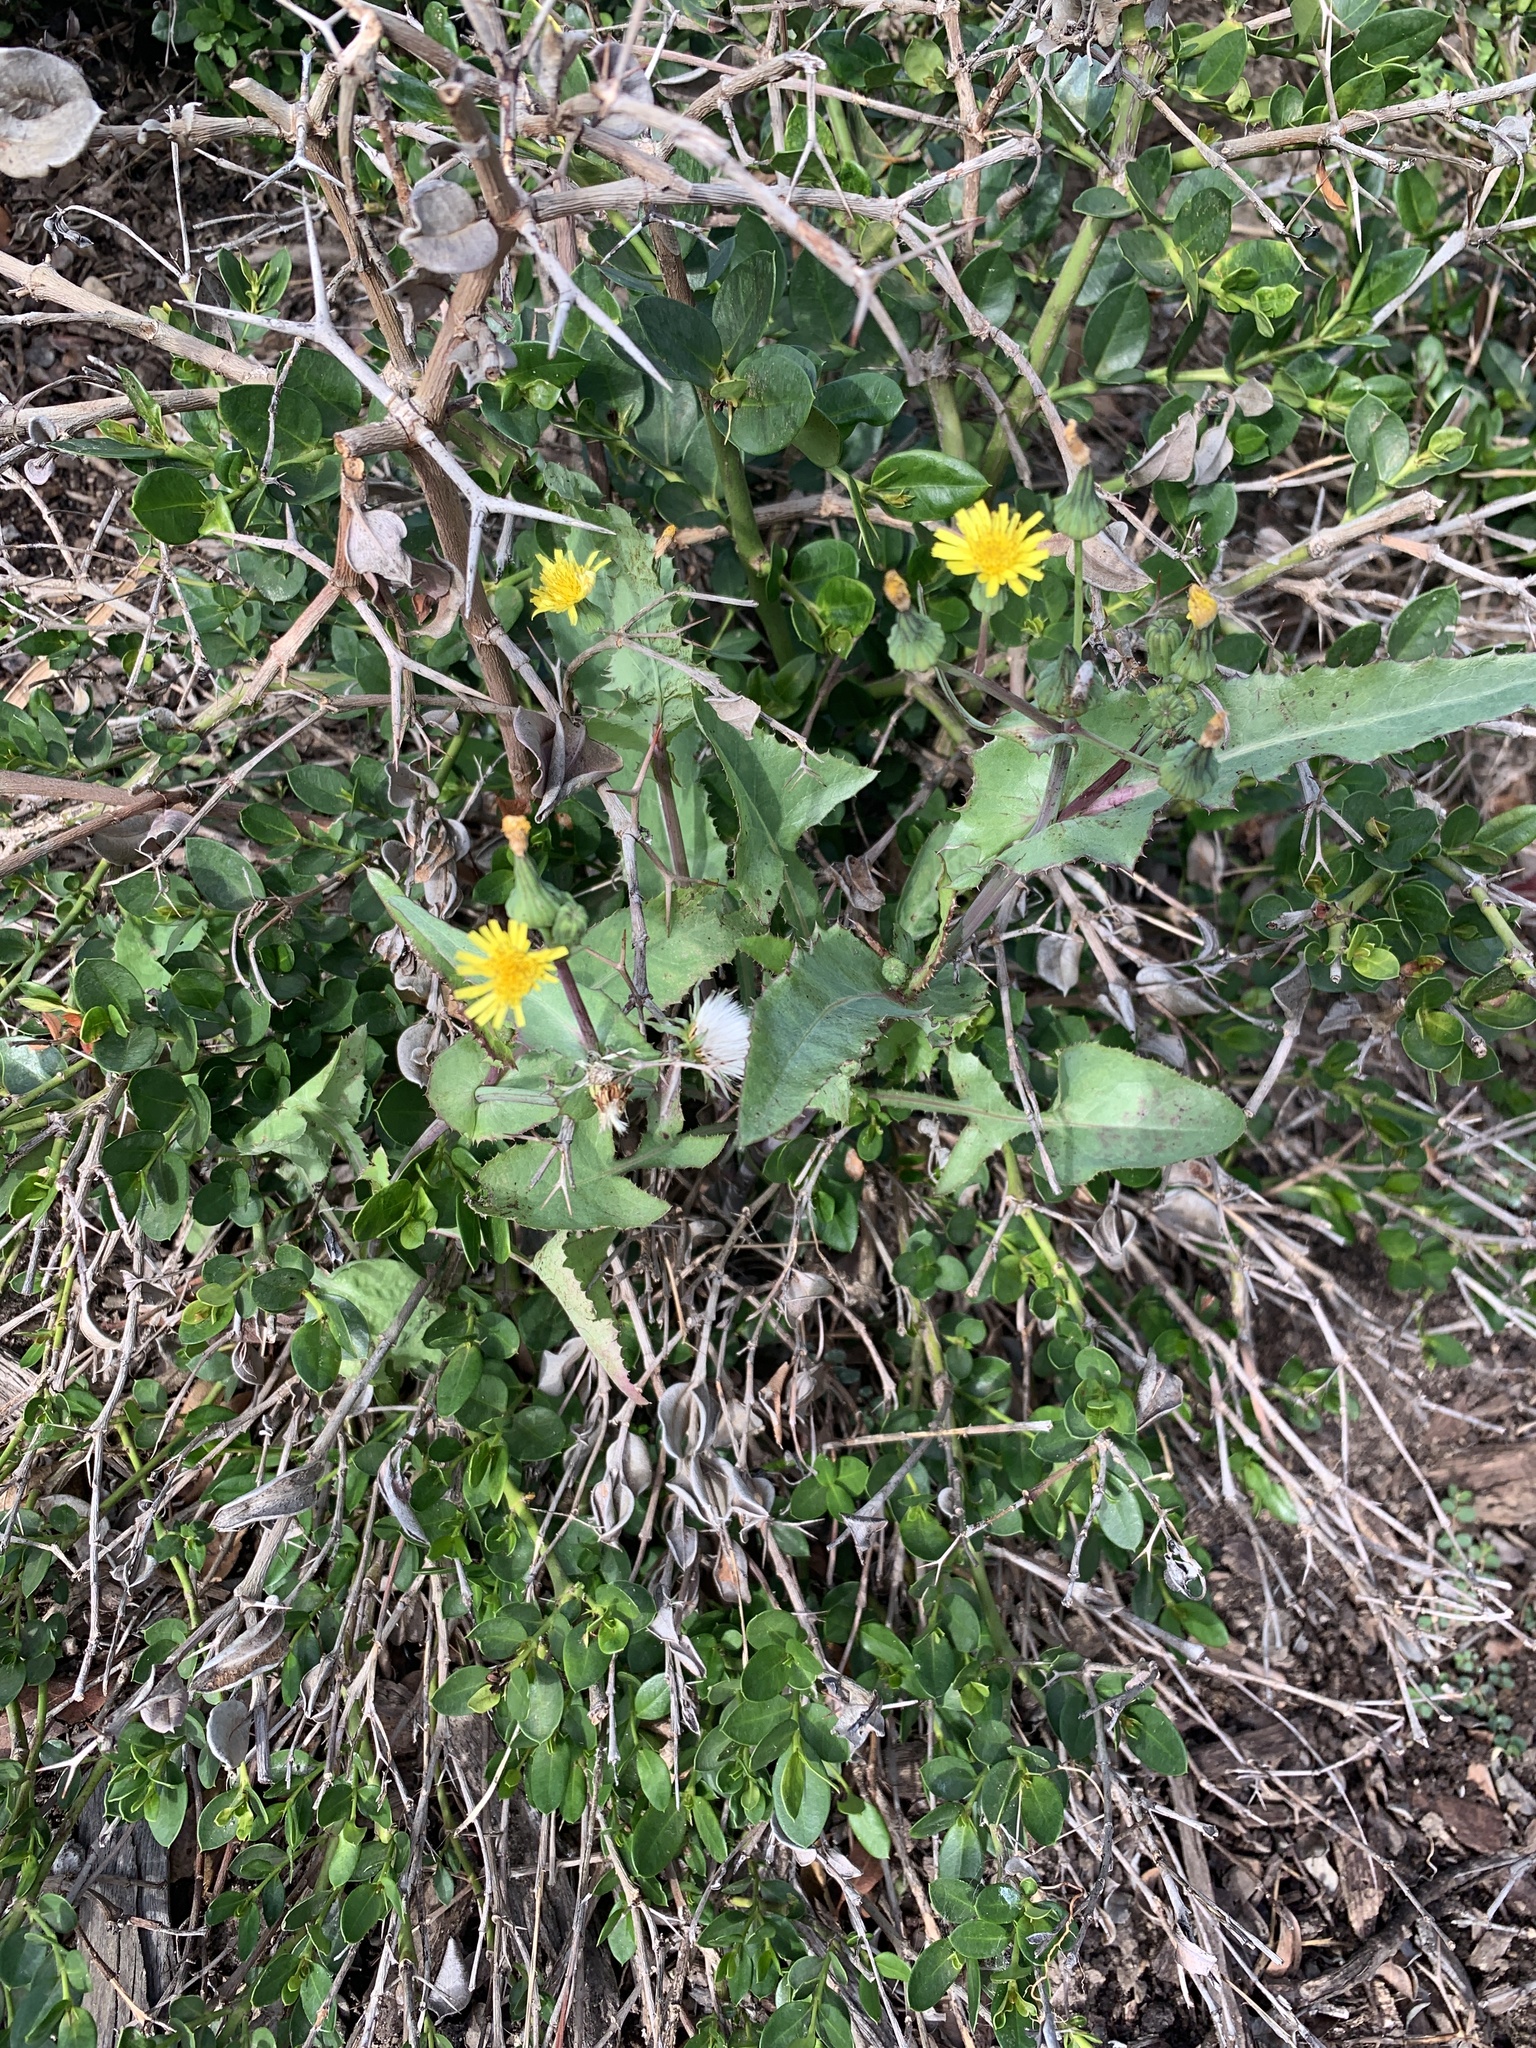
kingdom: Plantae
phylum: Tracheophyta
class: Magnoliopsida
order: Asterales
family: Asteraceae
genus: Sonchus
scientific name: Sonchus oleraceus
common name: Common sowthistle
